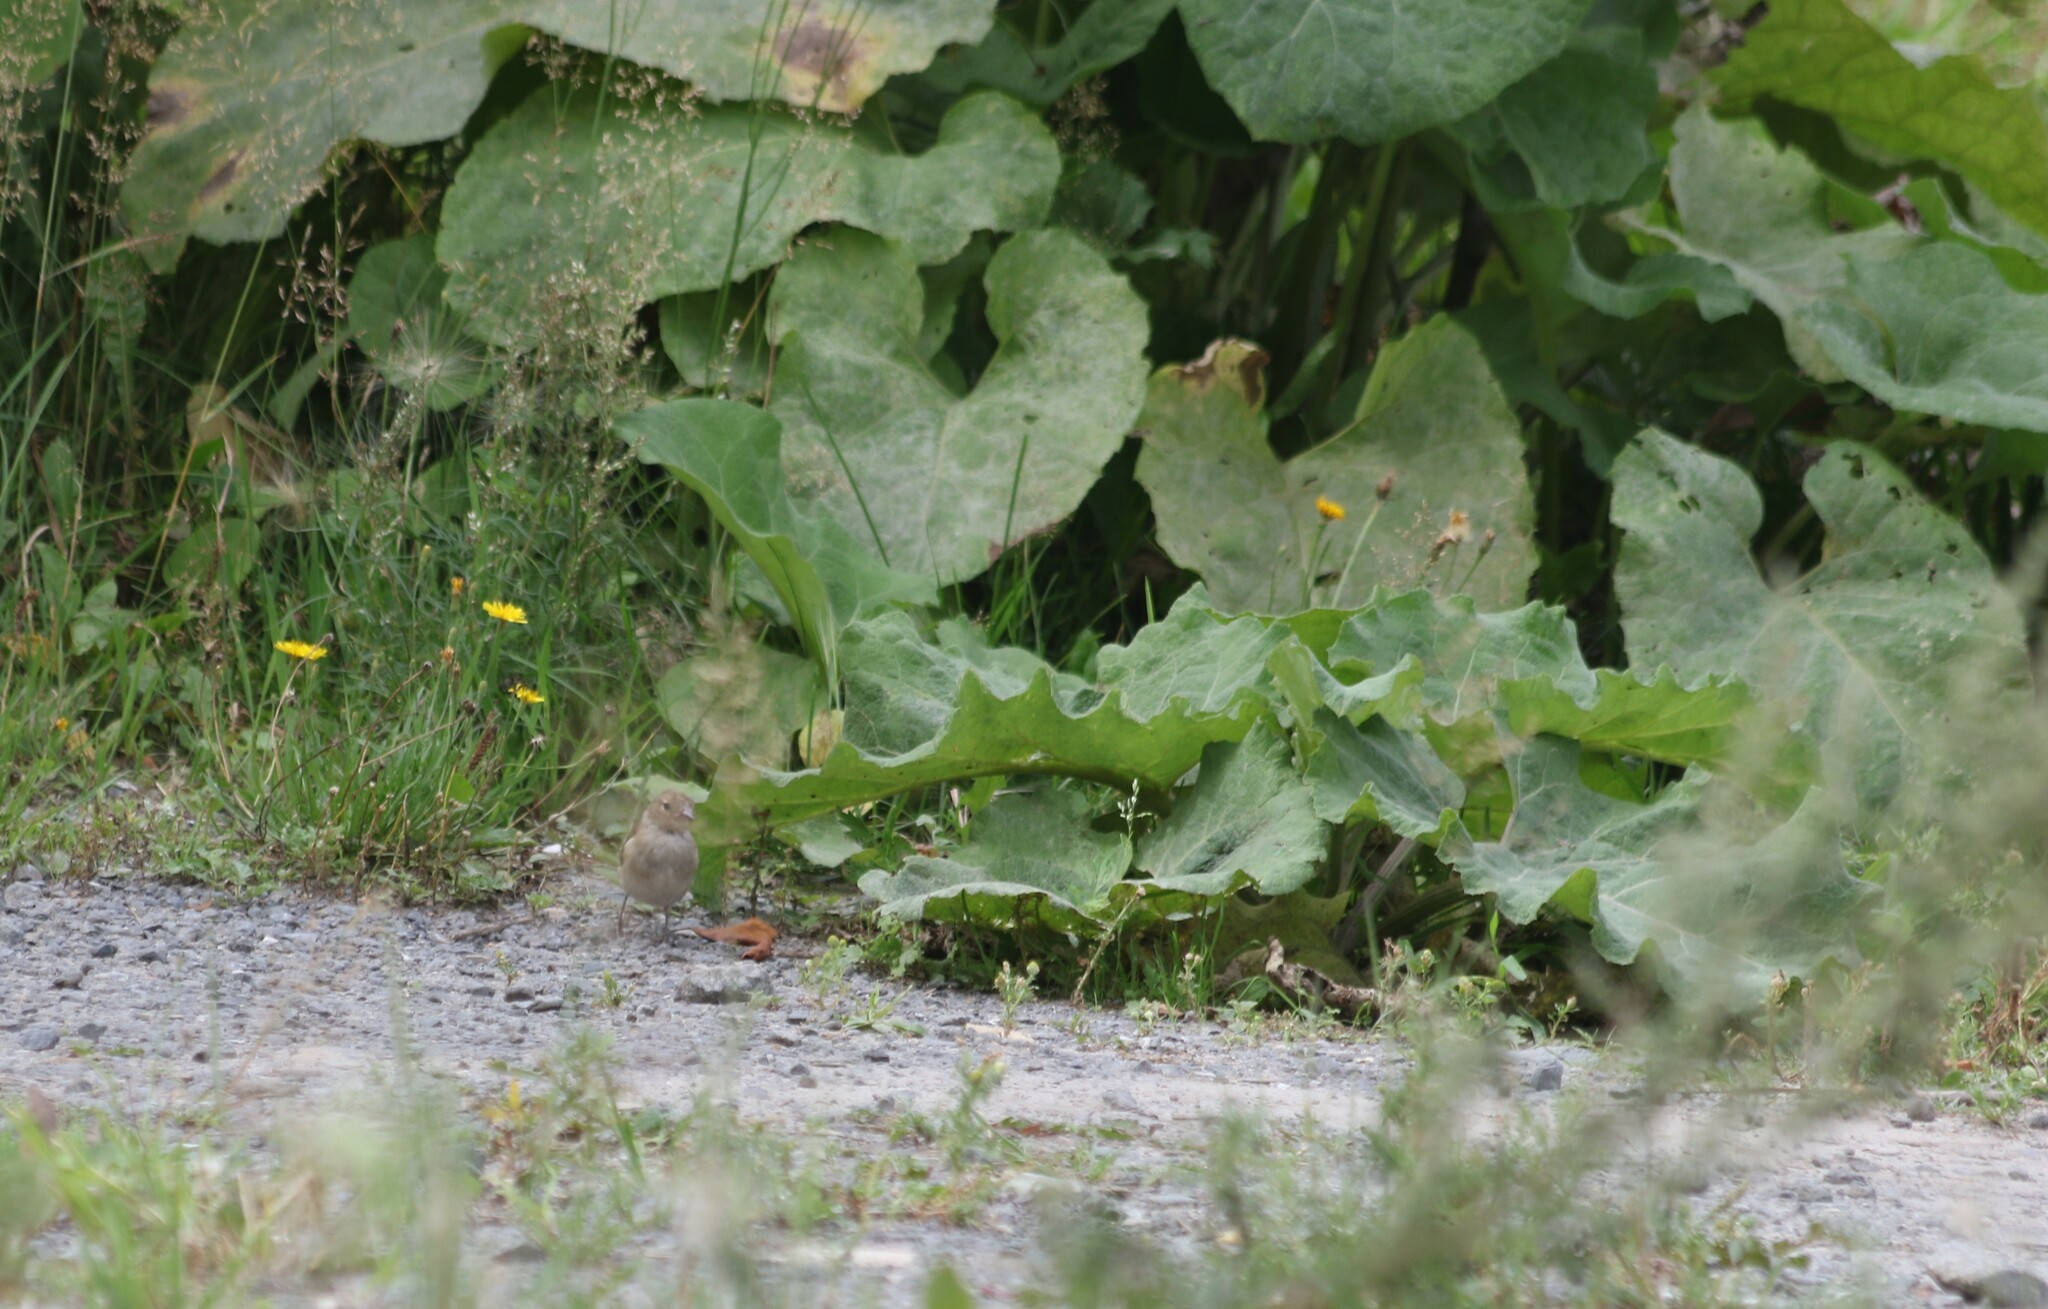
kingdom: Animalia
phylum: Chordata
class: Aves
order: Passeriformes
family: Fringillidae
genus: Fringilla
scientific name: Fringilla coelebs
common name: Common chaffinch
